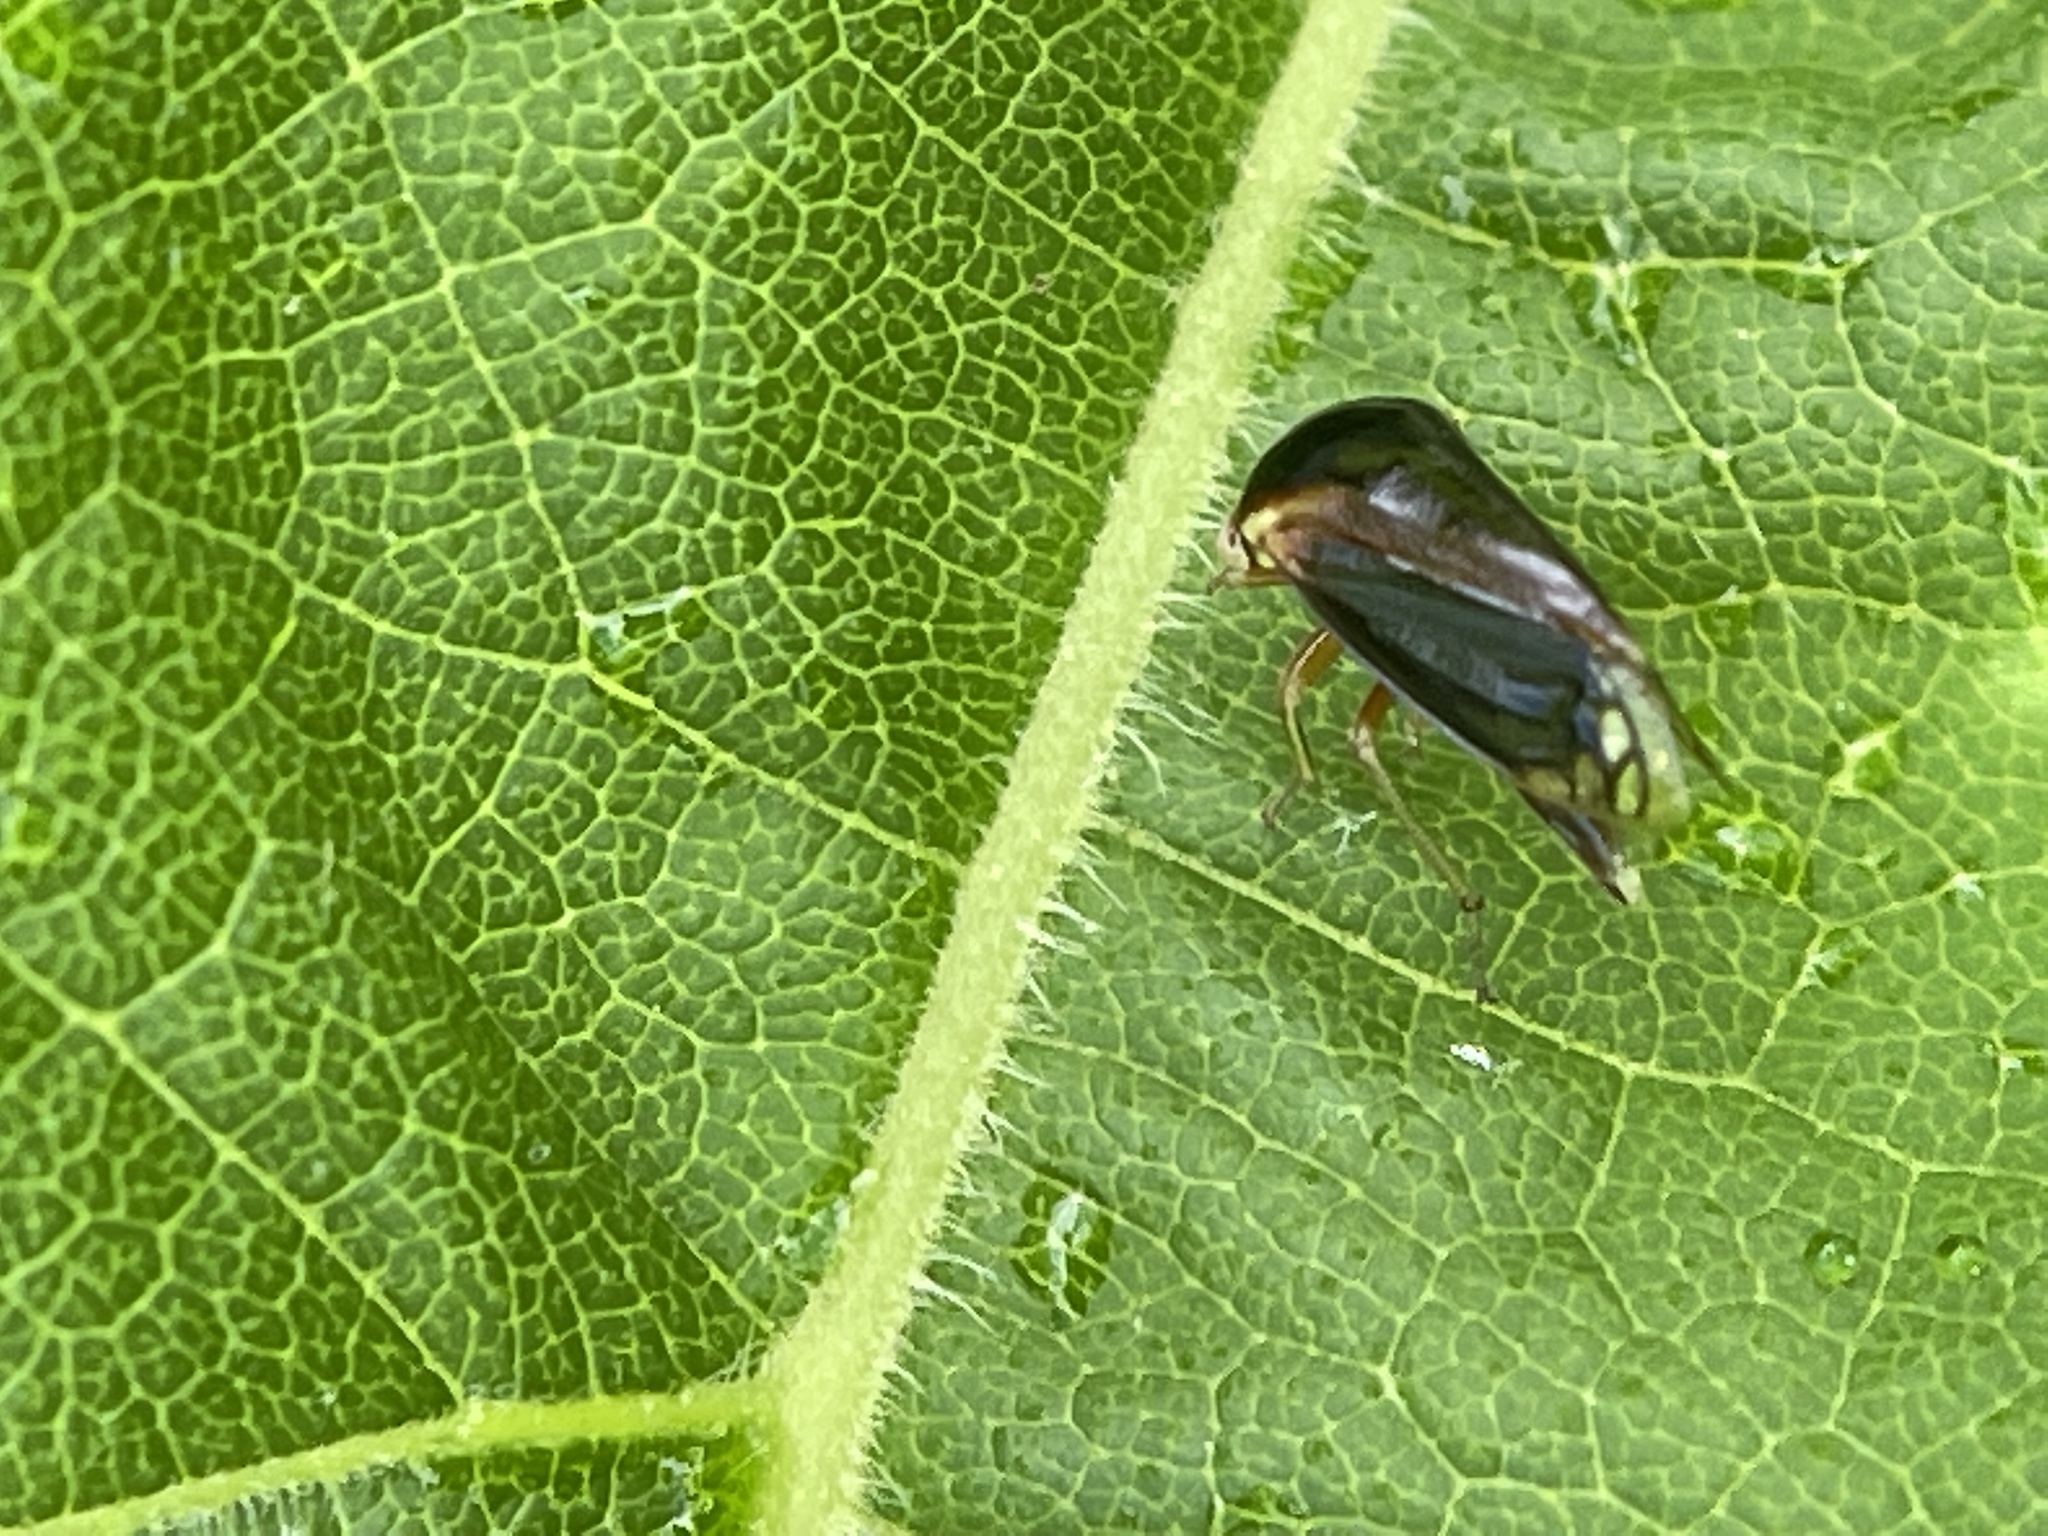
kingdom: Animalia
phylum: Arthropoda
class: Insecta
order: Hemiptera
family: Membracidae
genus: Acutalis
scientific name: Acutalis tartarea
